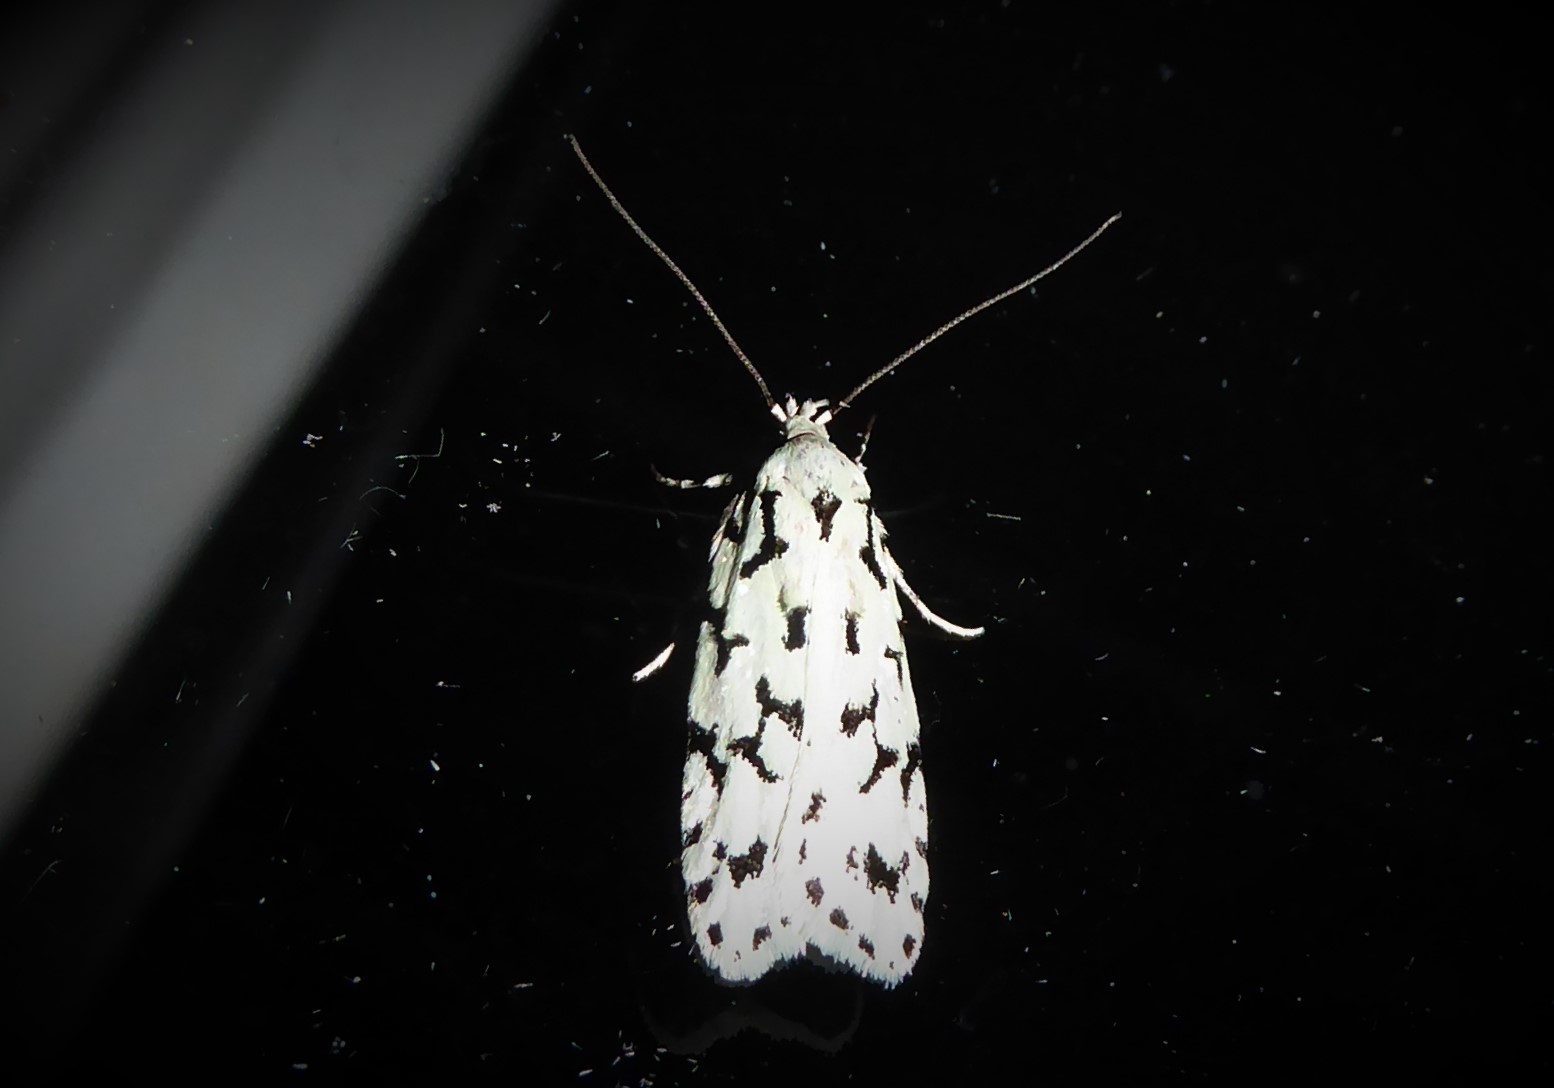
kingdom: Animalia
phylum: Arthropoda
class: Insecta
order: Lepidoptera
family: Oecophoridae
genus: Izatha
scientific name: Izatha huttoni
